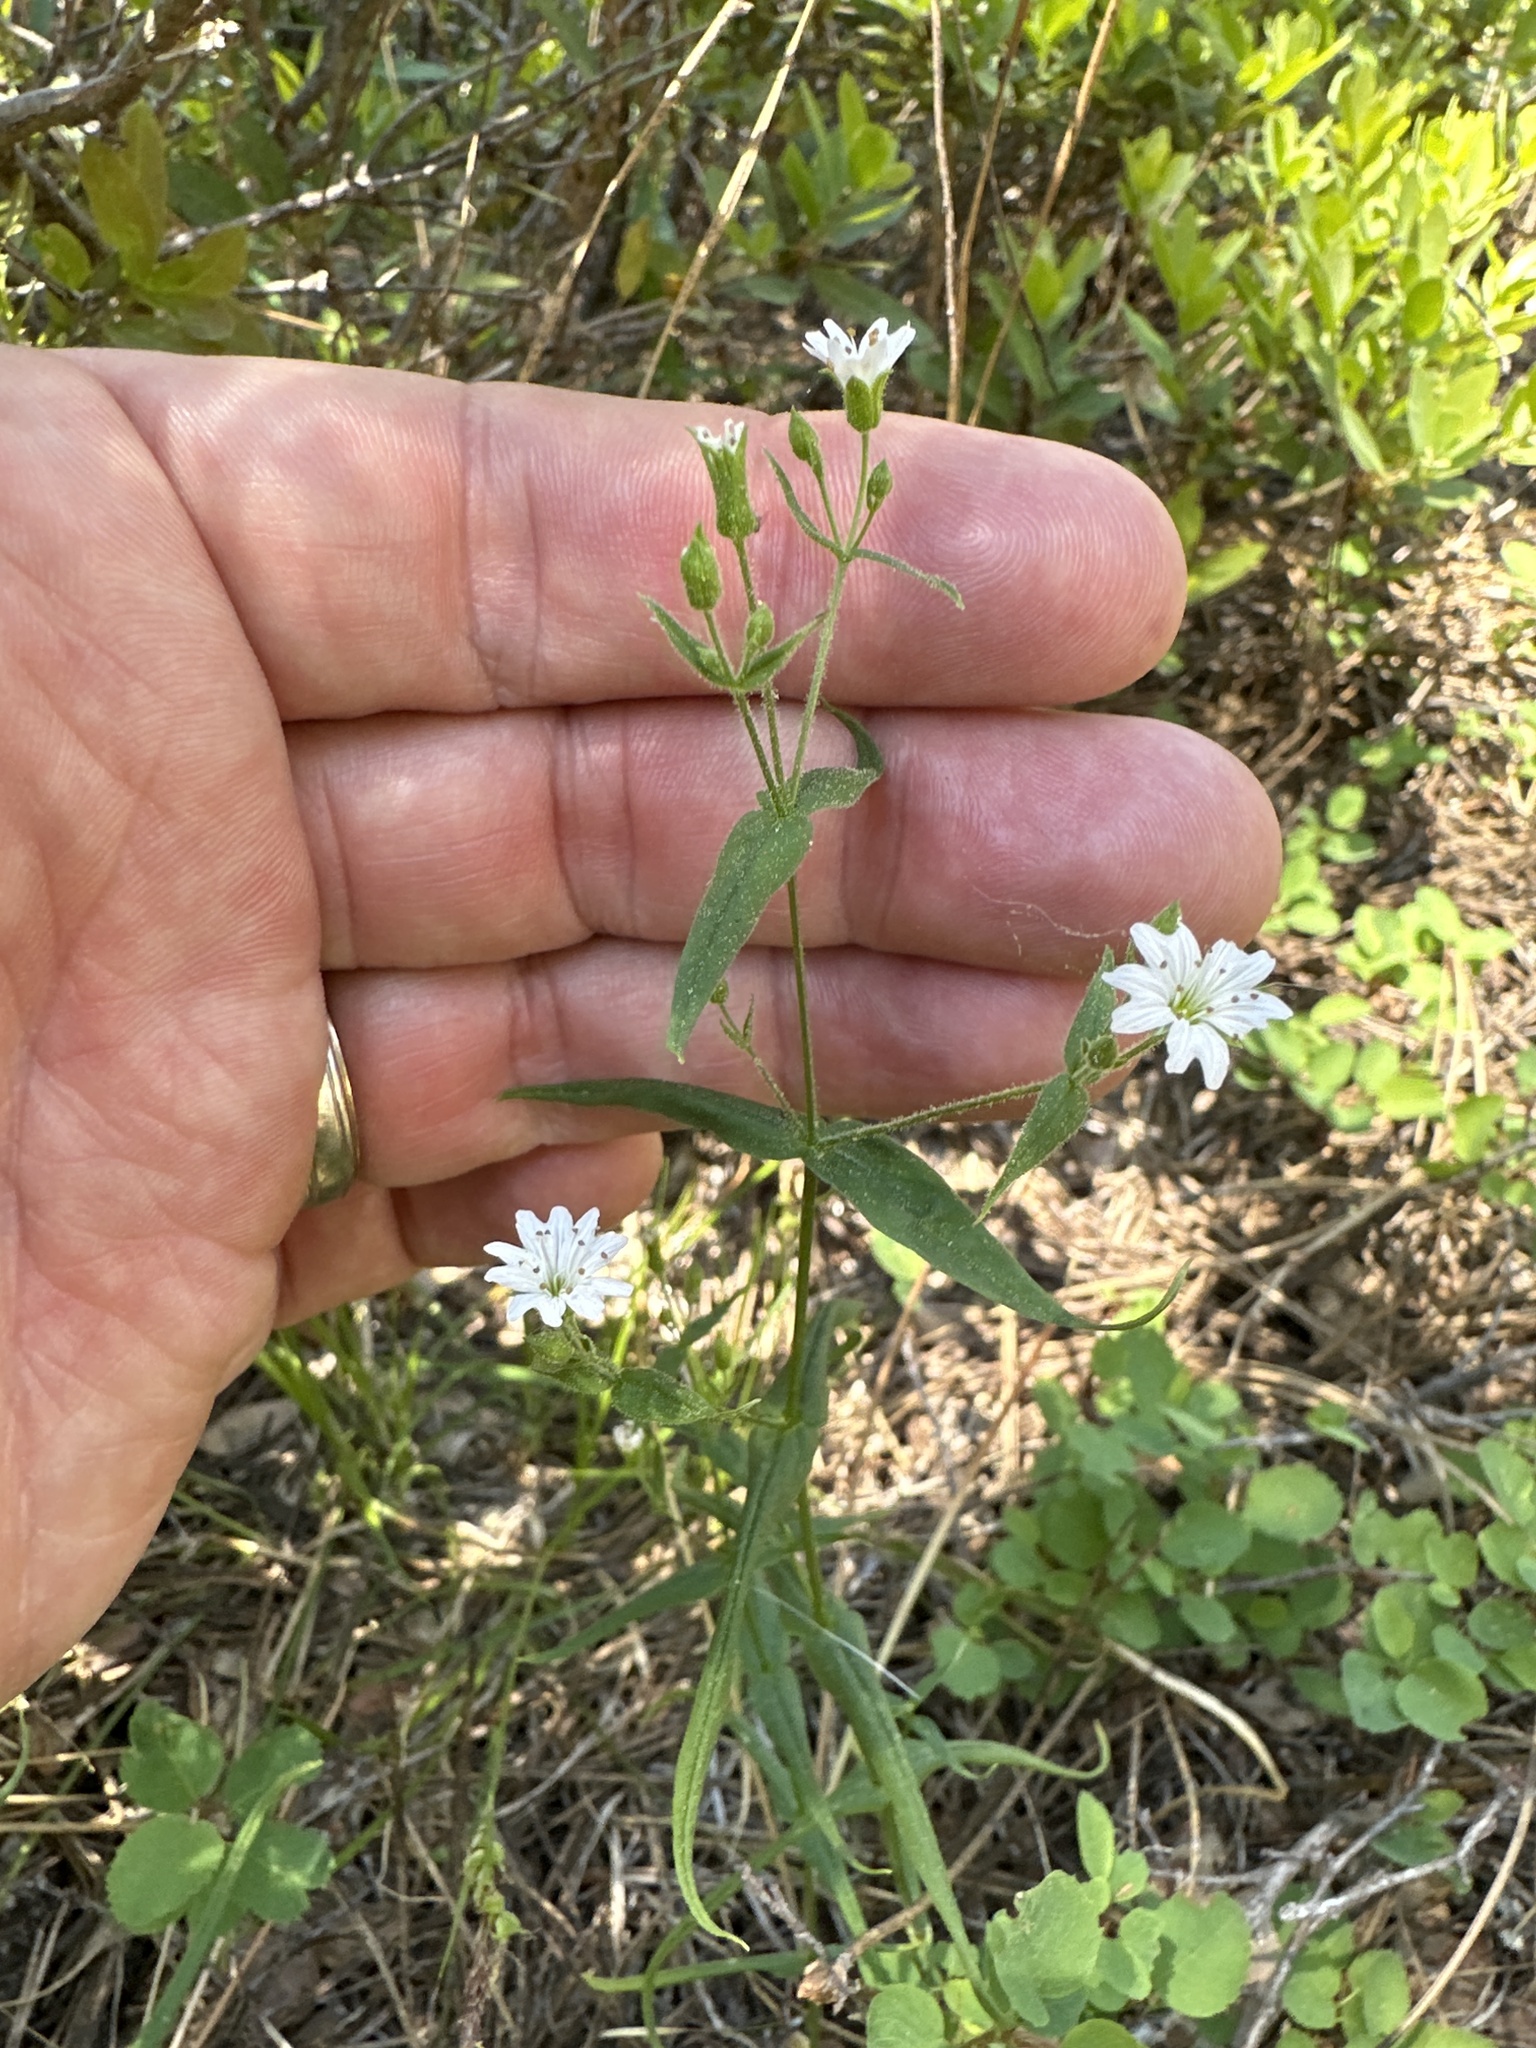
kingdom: Plantae
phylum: Tracheophyta
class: Magnoliopsida
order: Caryophyllales
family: Caryophyllaceae
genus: Schizotechium
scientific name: Schizotechium jamesianum
